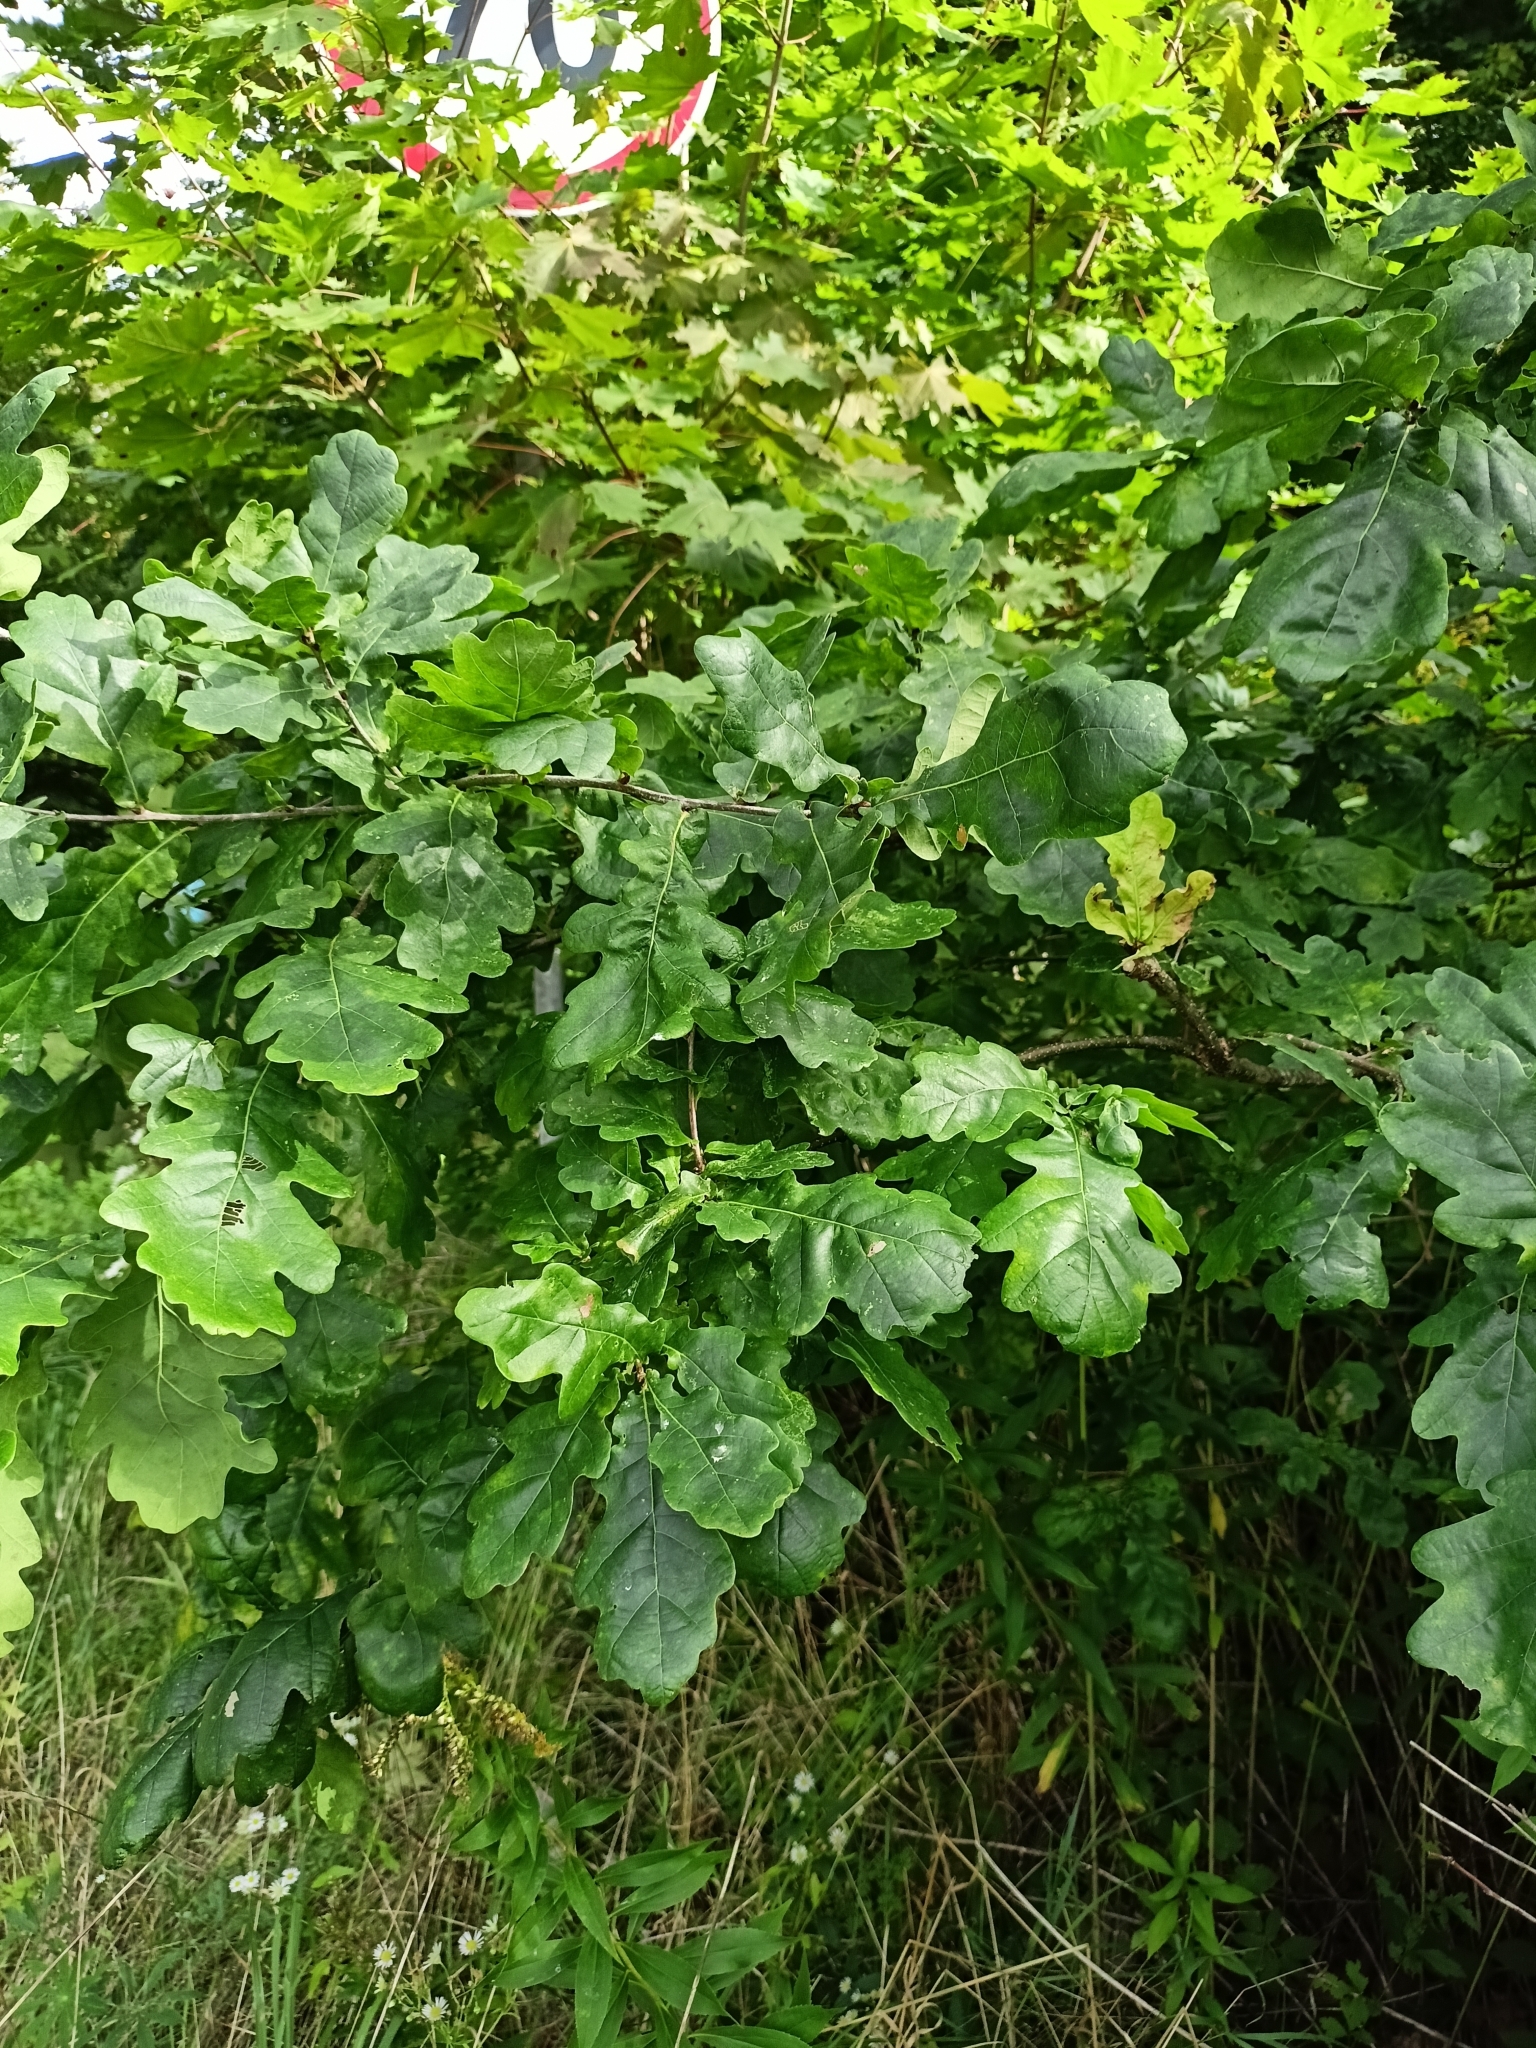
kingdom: Plantae
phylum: Tracheophyta
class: Magnoliopsida
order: Fagales
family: Fagaceae
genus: Quercus
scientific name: Quercus robur
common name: Pedunculate oak
